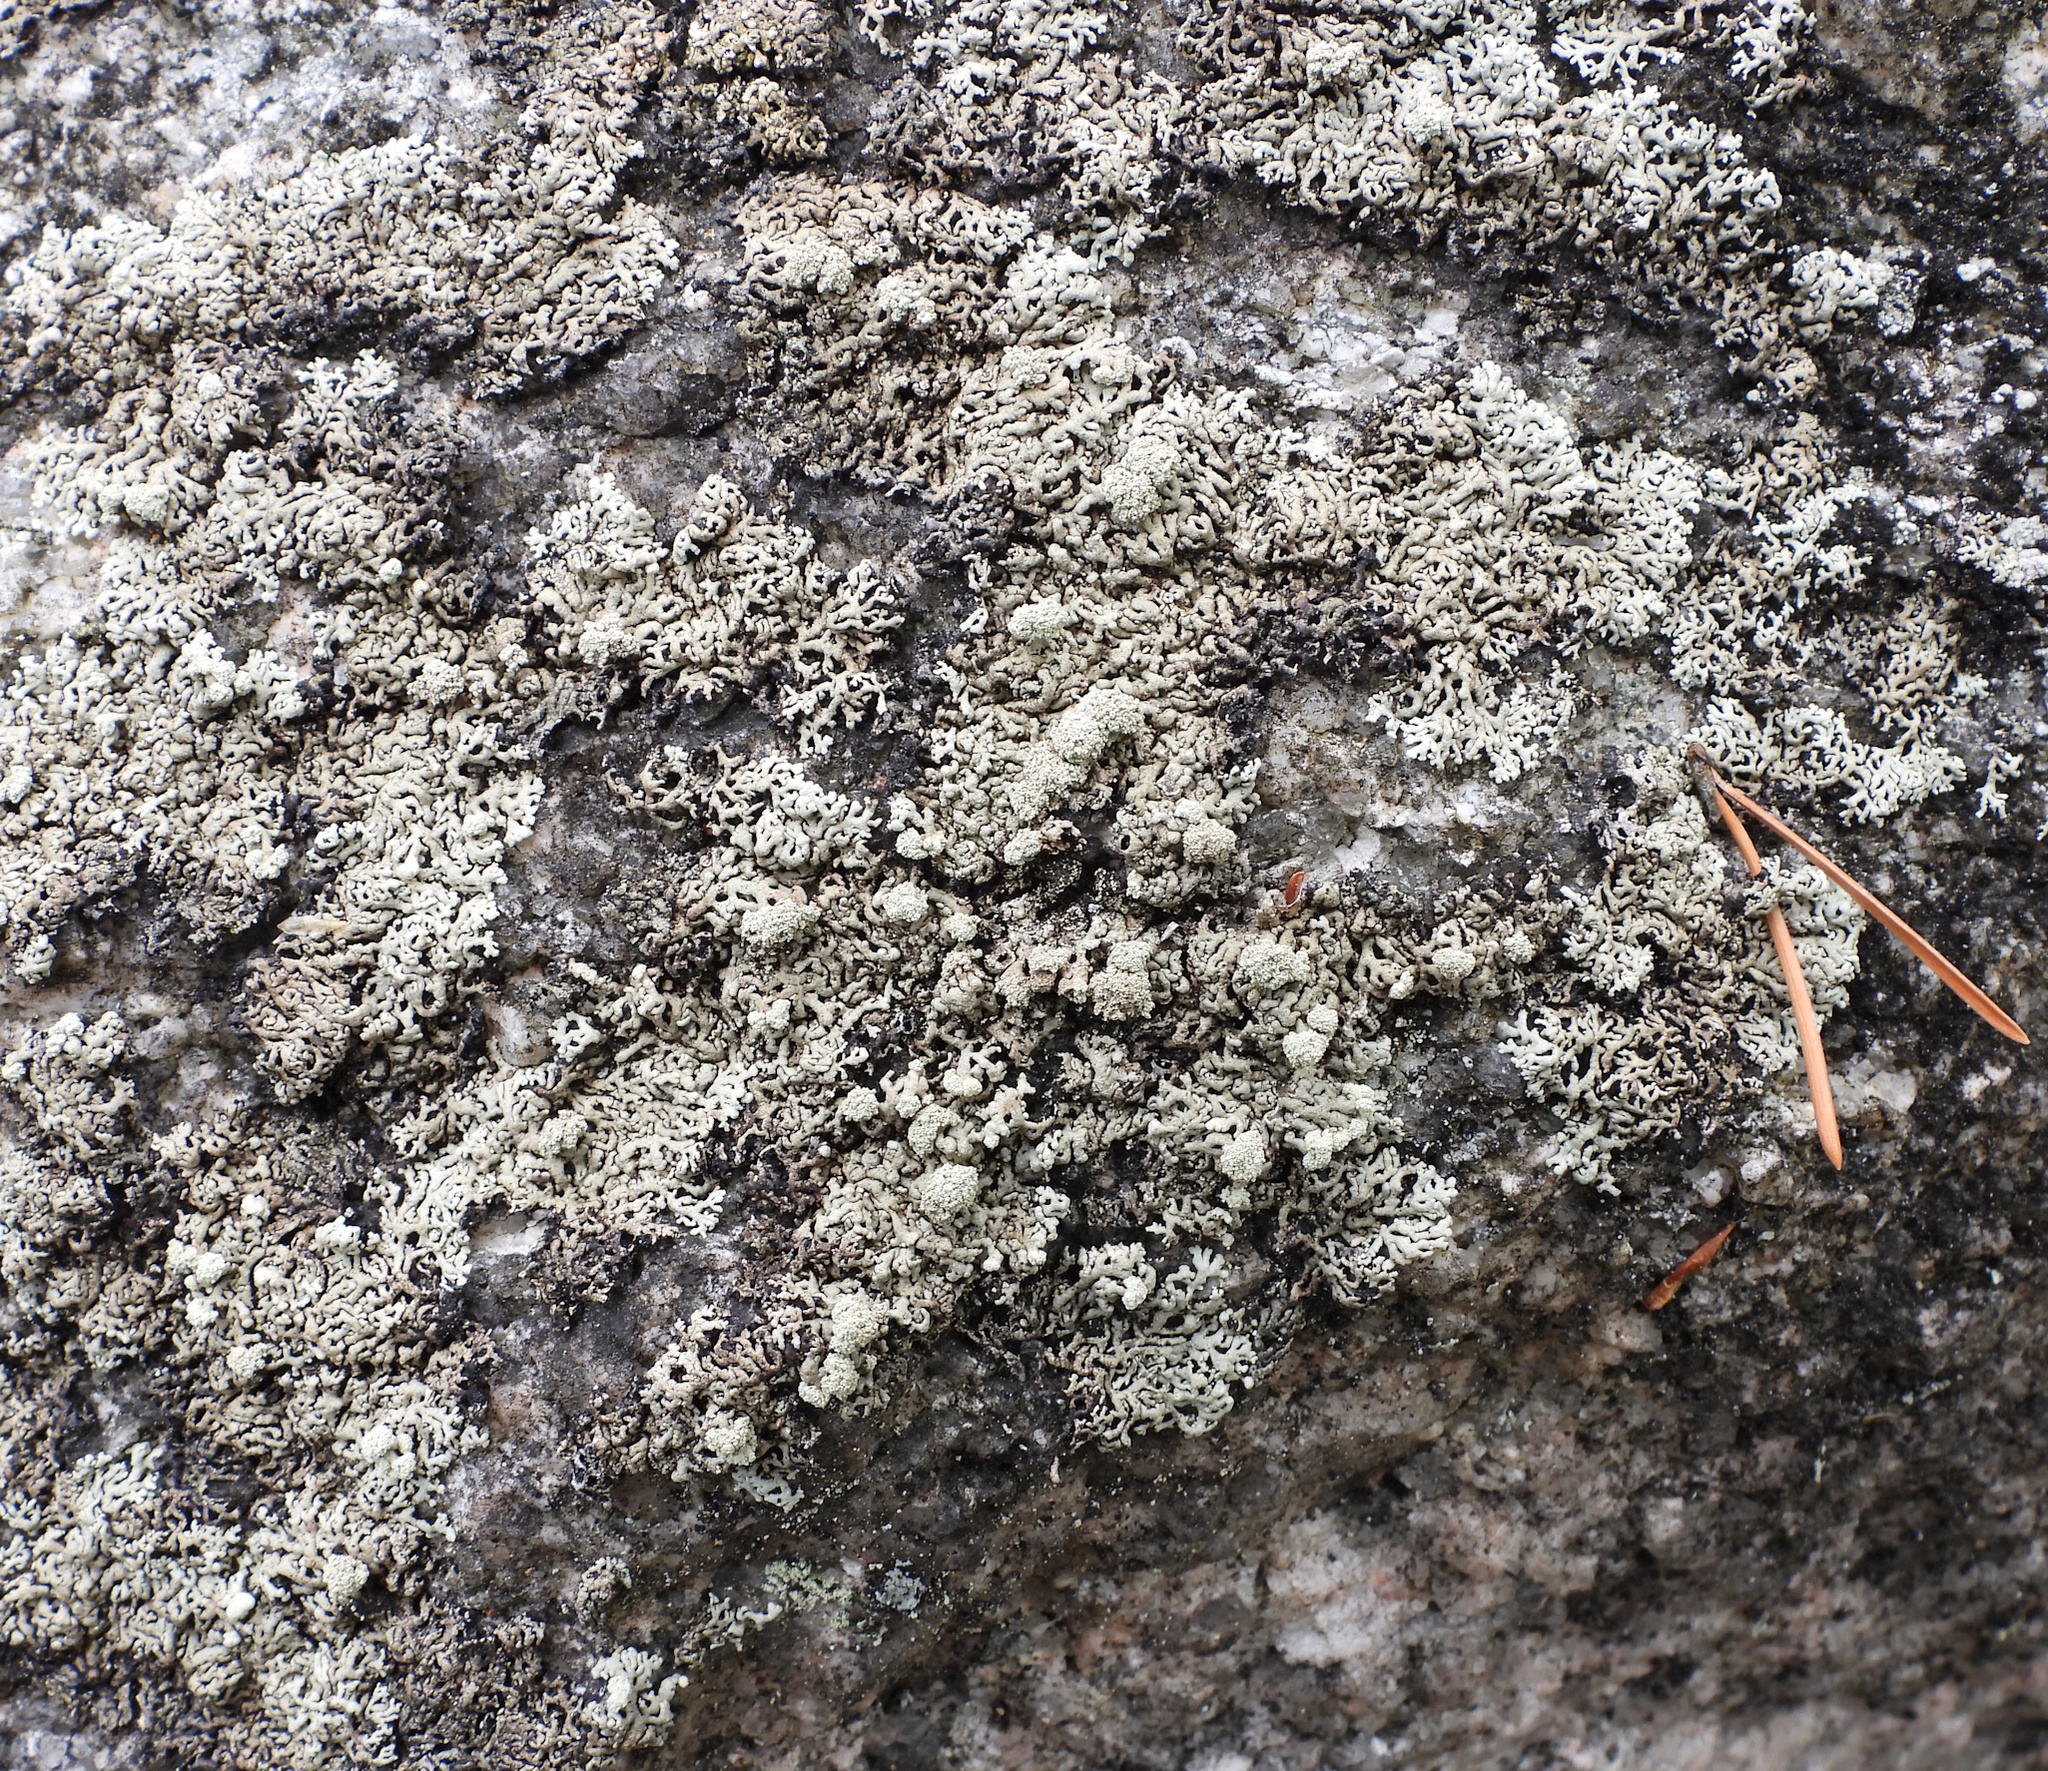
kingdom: Fungi
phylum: Ascomycota
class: Lecanoromycetes
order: Lecanorales
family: Parmeliaceae
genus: Arctoparmelia
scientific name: Arctoparmelia incurva
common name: Bent ring lichen
